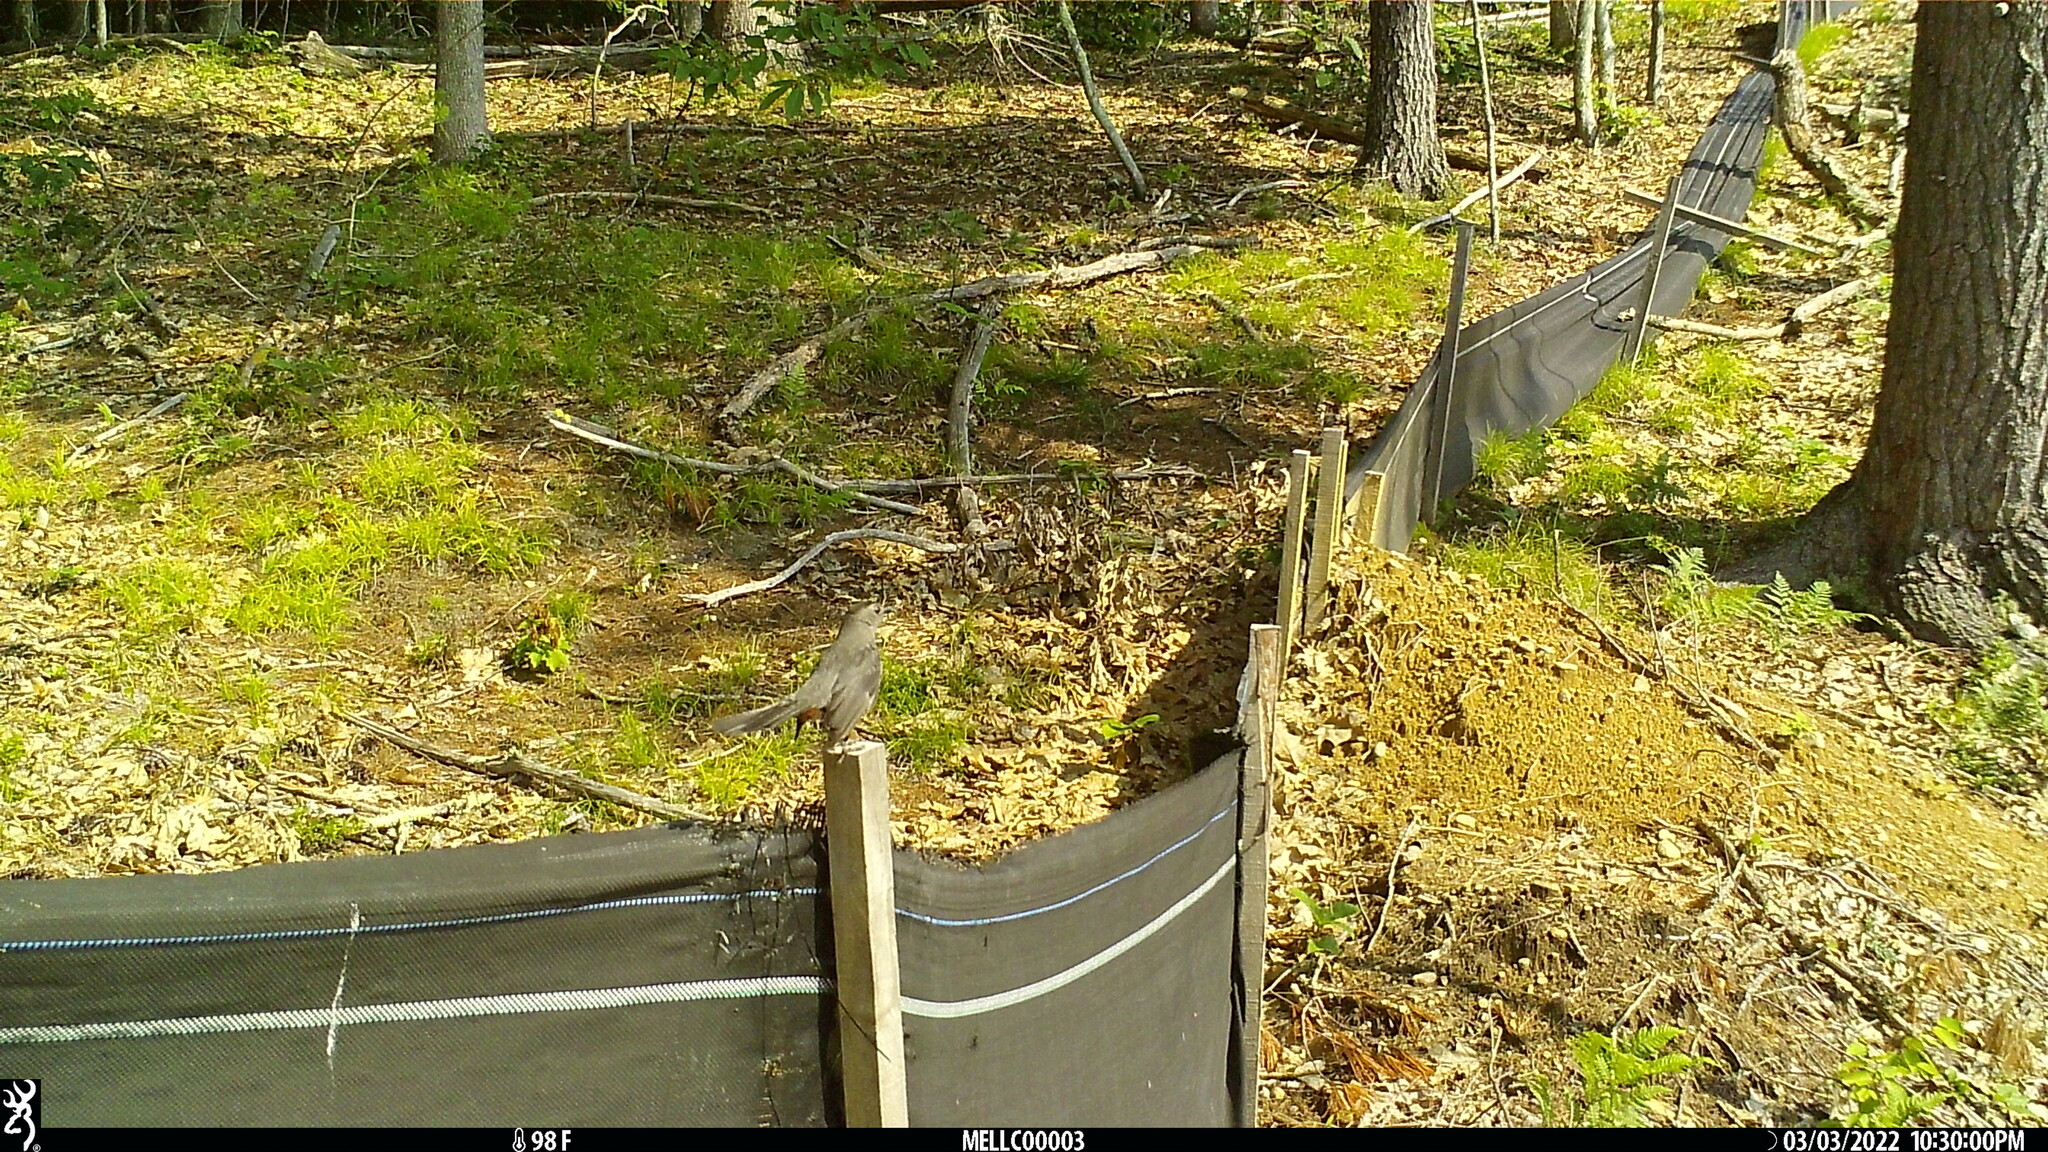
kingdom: Animalia
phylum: Chordata
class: Aves
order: Passeriformes
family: Mimidae
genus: Dumetella
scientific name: Dumetella carolinensis
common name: Gray catbird
